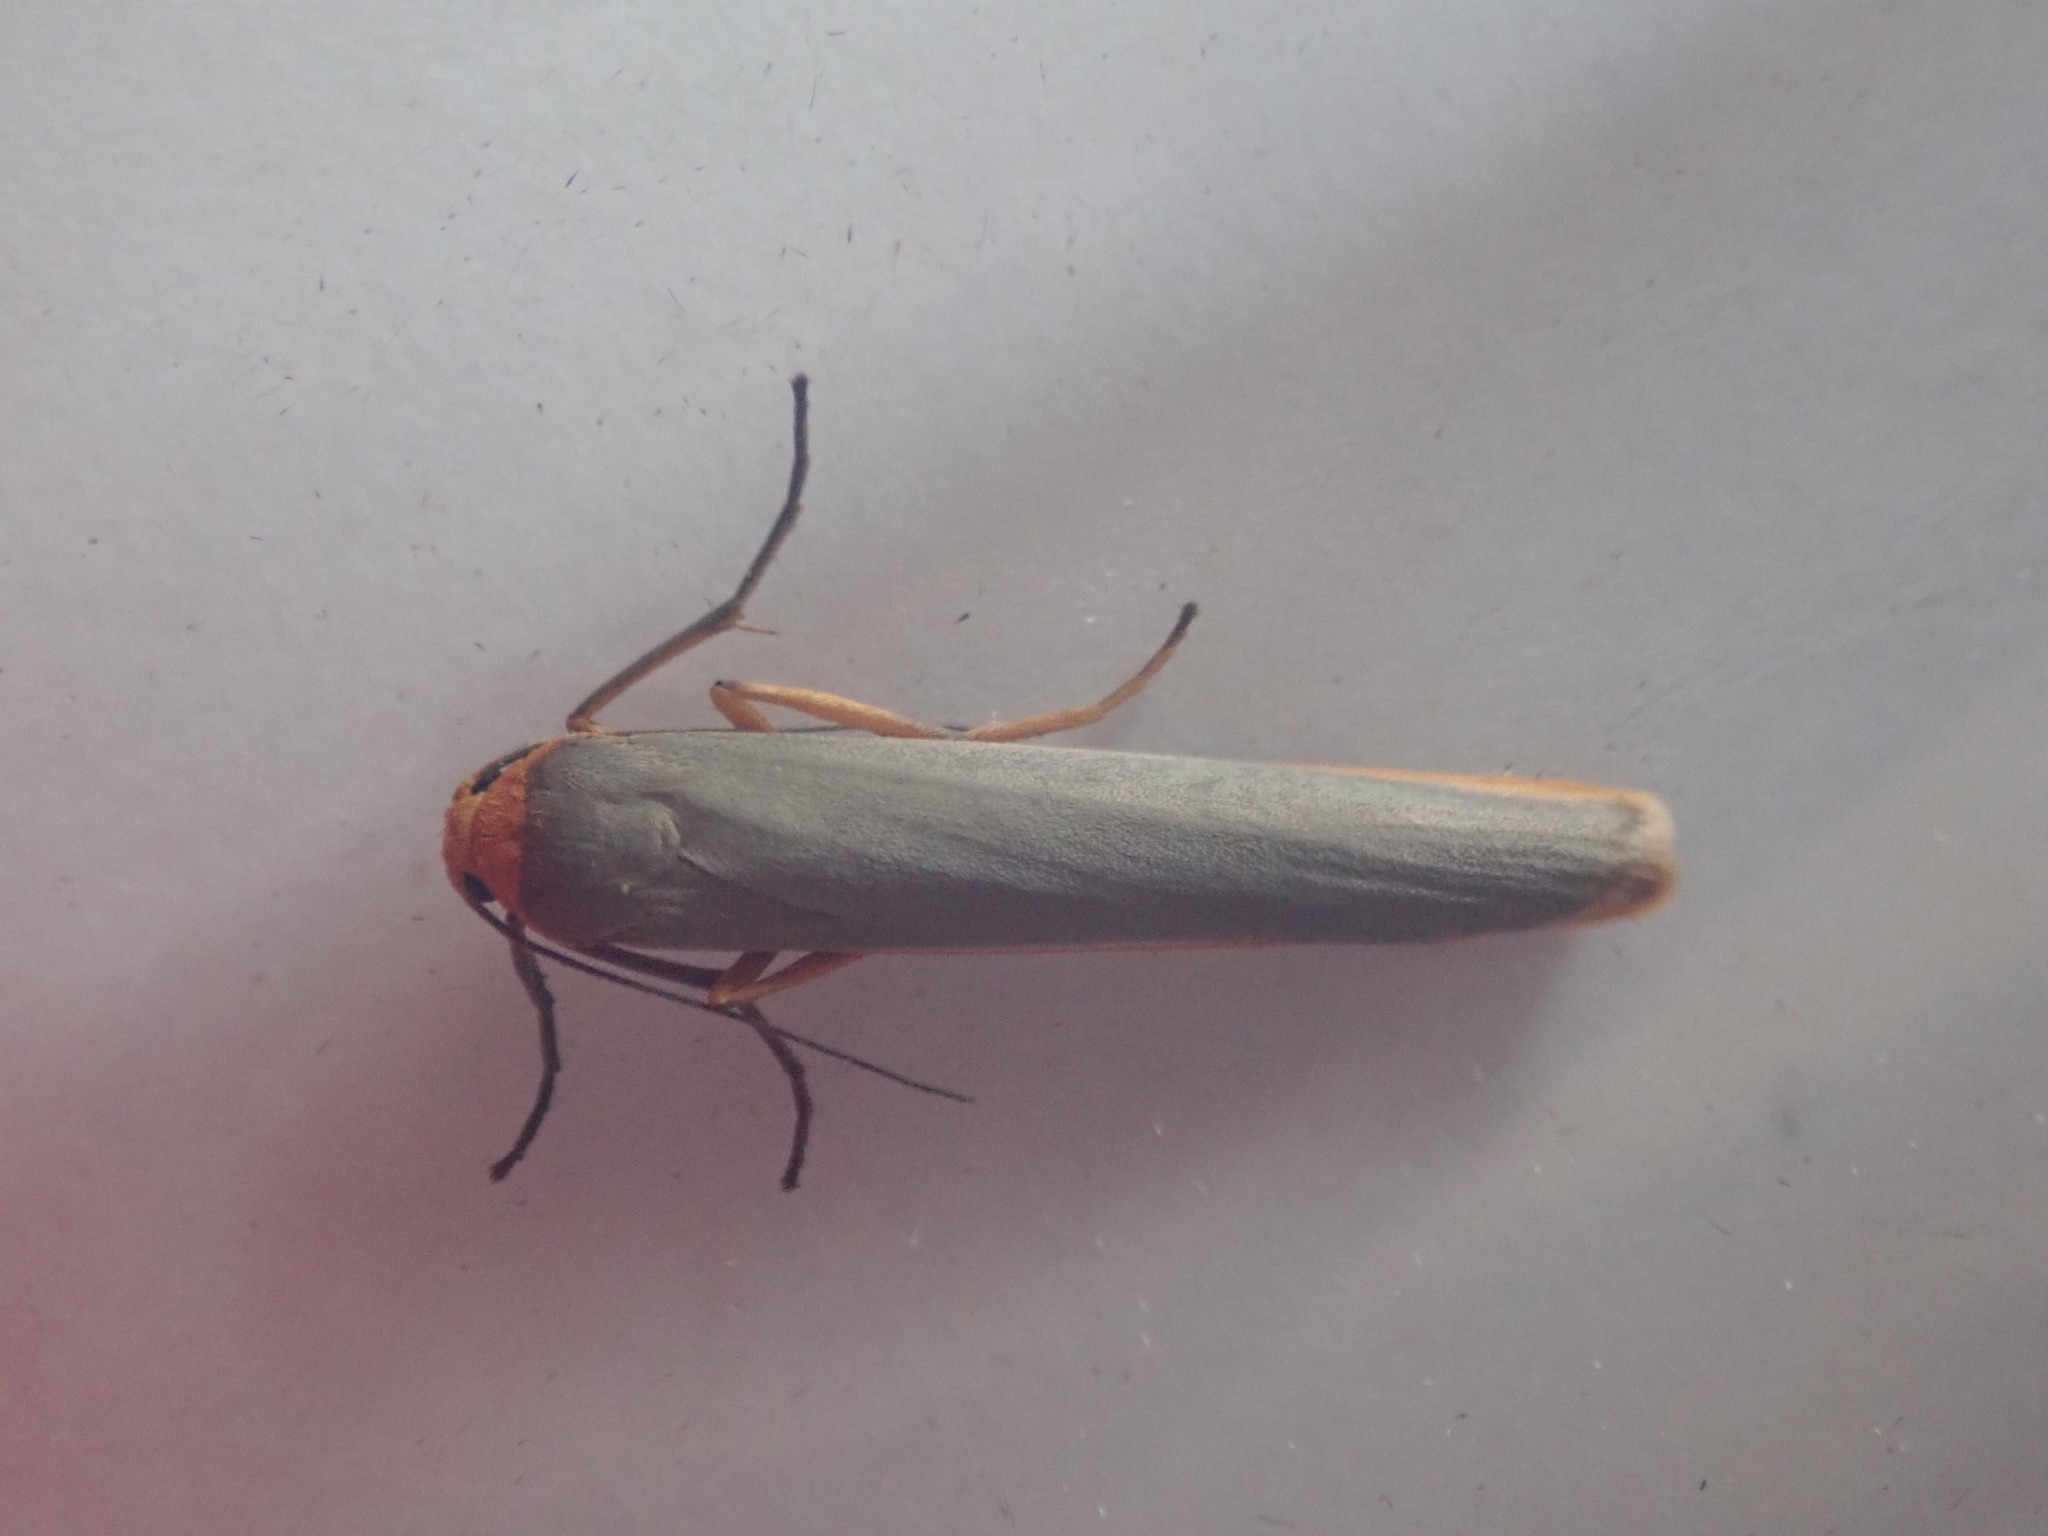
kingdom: Animalia
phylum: Arthropoda
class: Insecta
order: Lepidoptera
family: Erebidae
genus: Manulea
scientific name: Manulea complana
